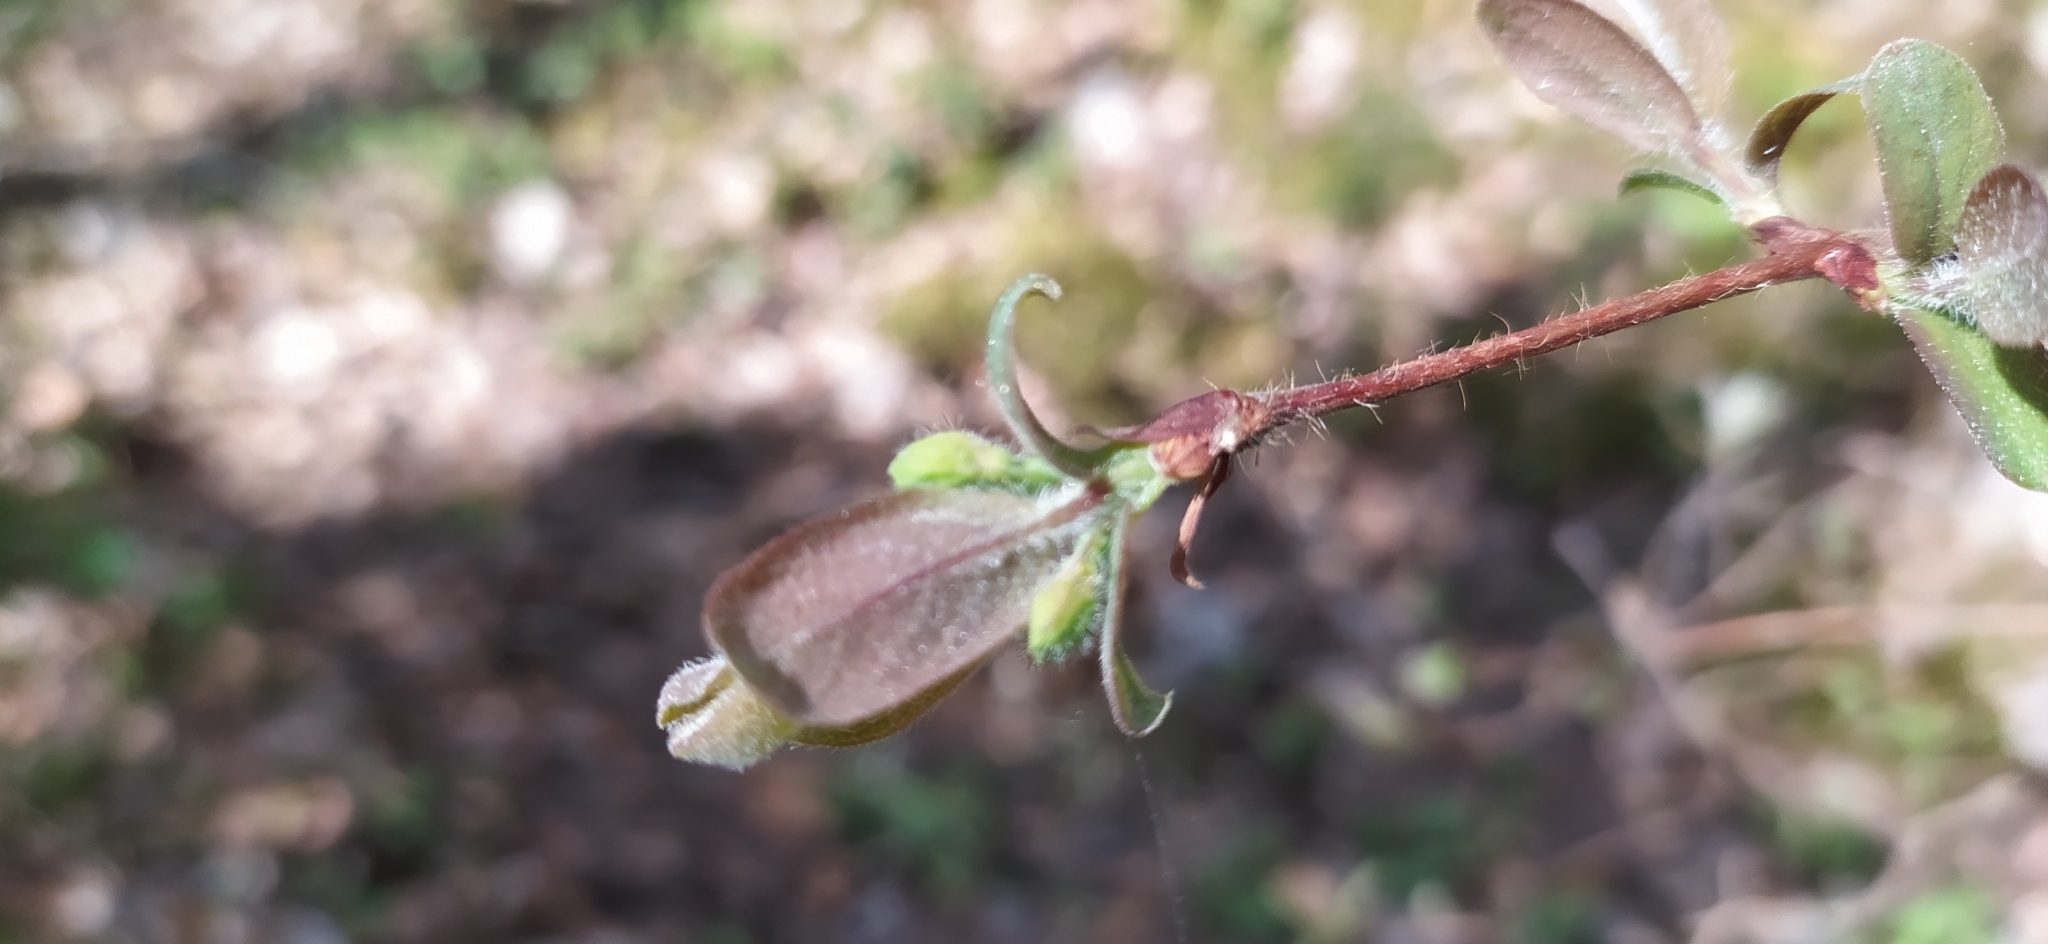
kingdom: Plantae
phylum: Tracheophyta
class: Magnoliopsida
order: Dipsacales
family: Caprifoliaceae
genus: Lonicera
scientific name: Lonicera caerulea
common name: Blue honeysuckle
